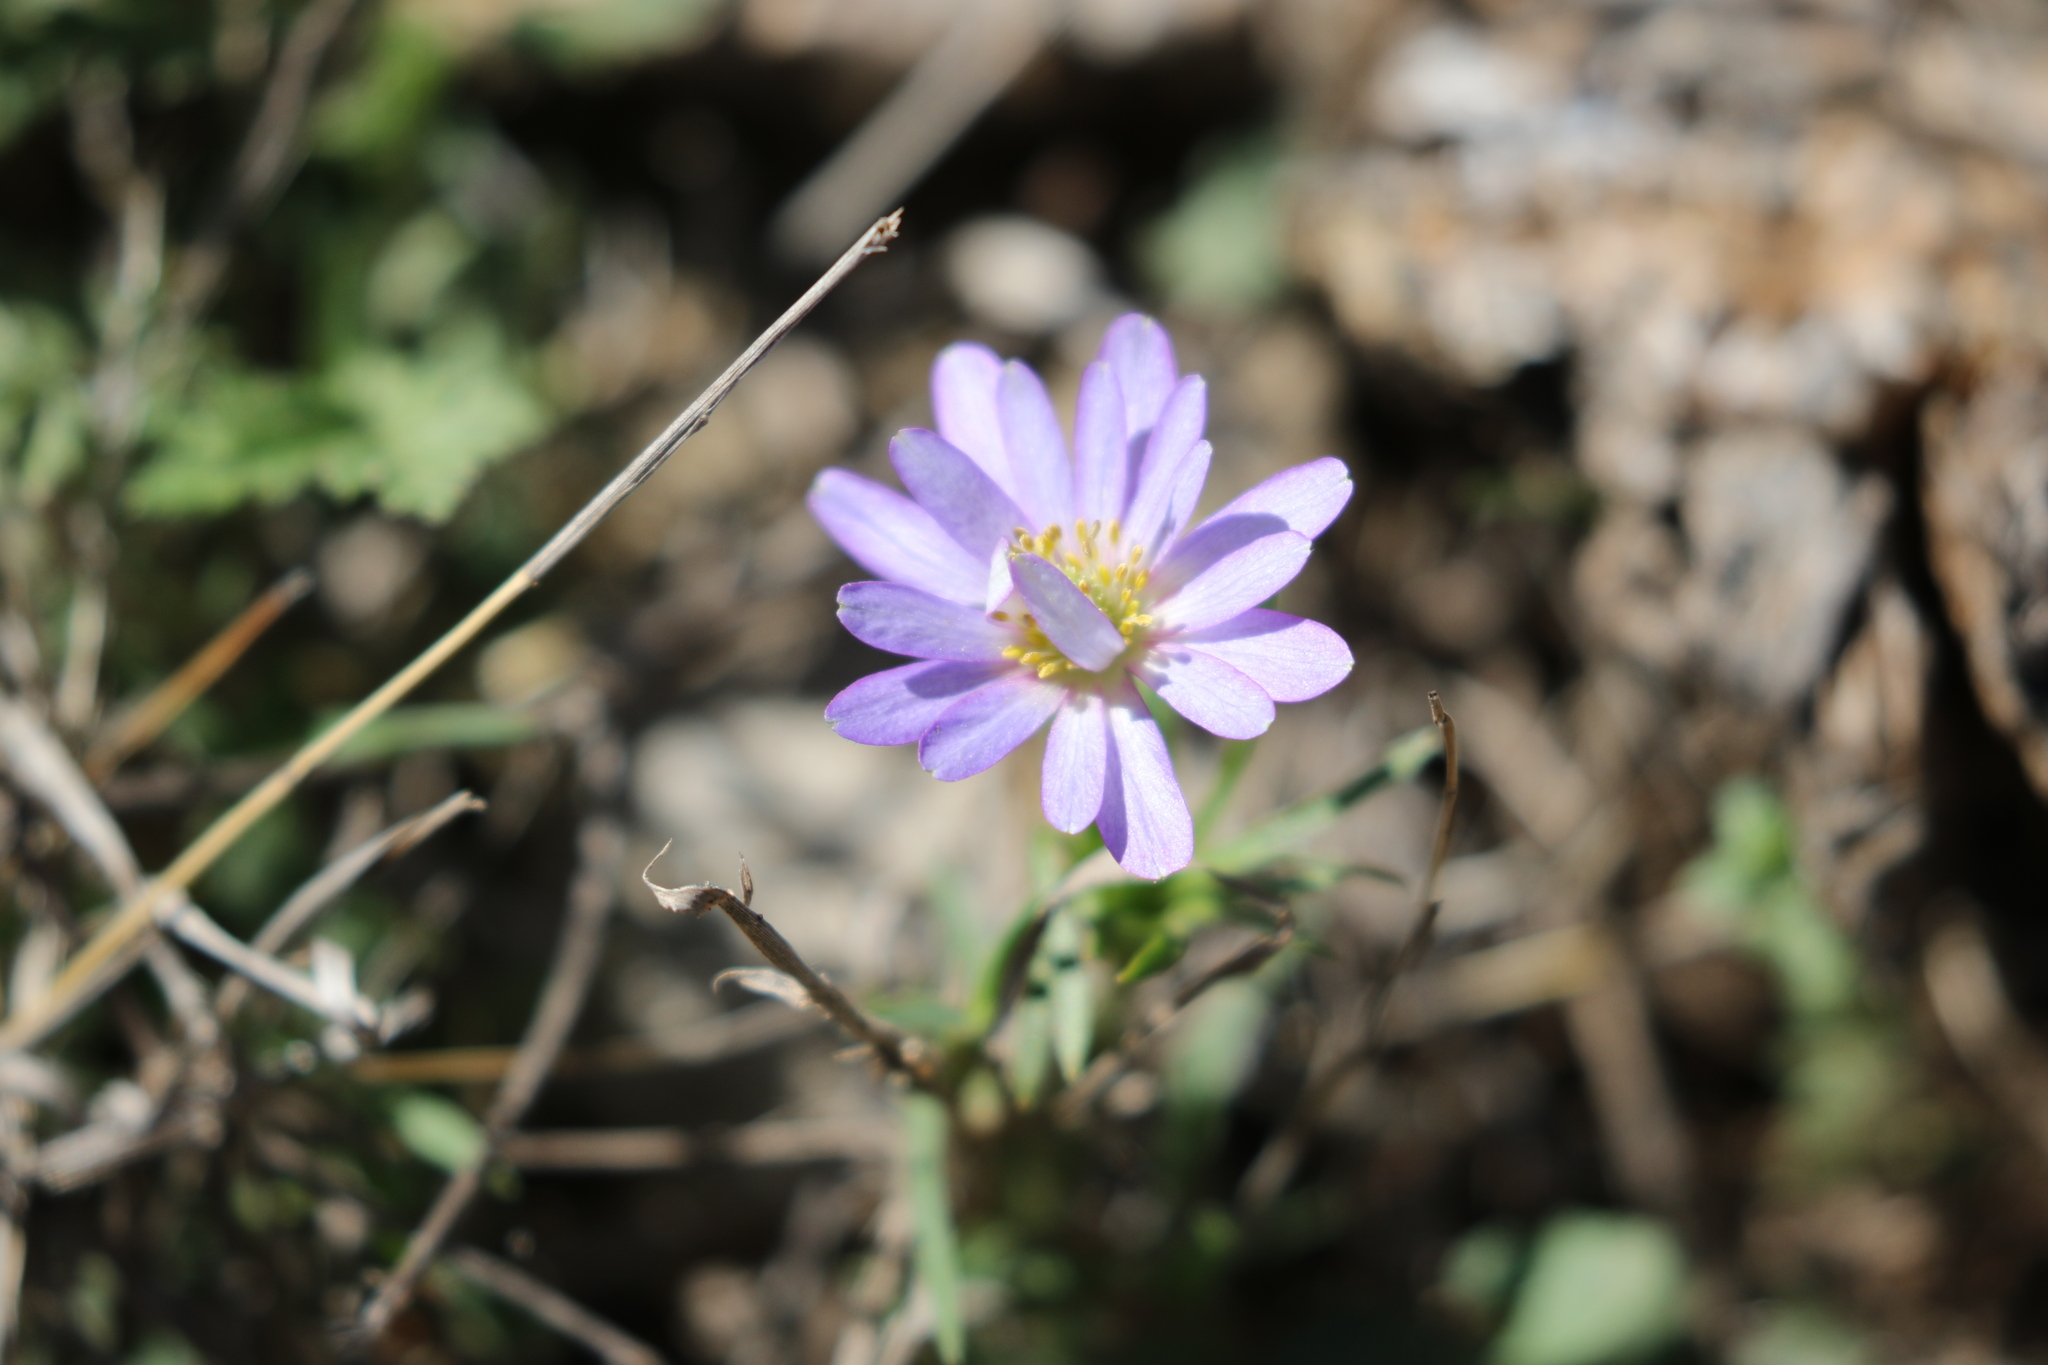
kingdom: Plantae
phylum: Tracheophyta
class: Magnoliopsida
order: Ranunculales
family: Ranunculaceae
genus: Anemone
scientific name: Anemone berlandieri
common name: Ten-petal anemone
